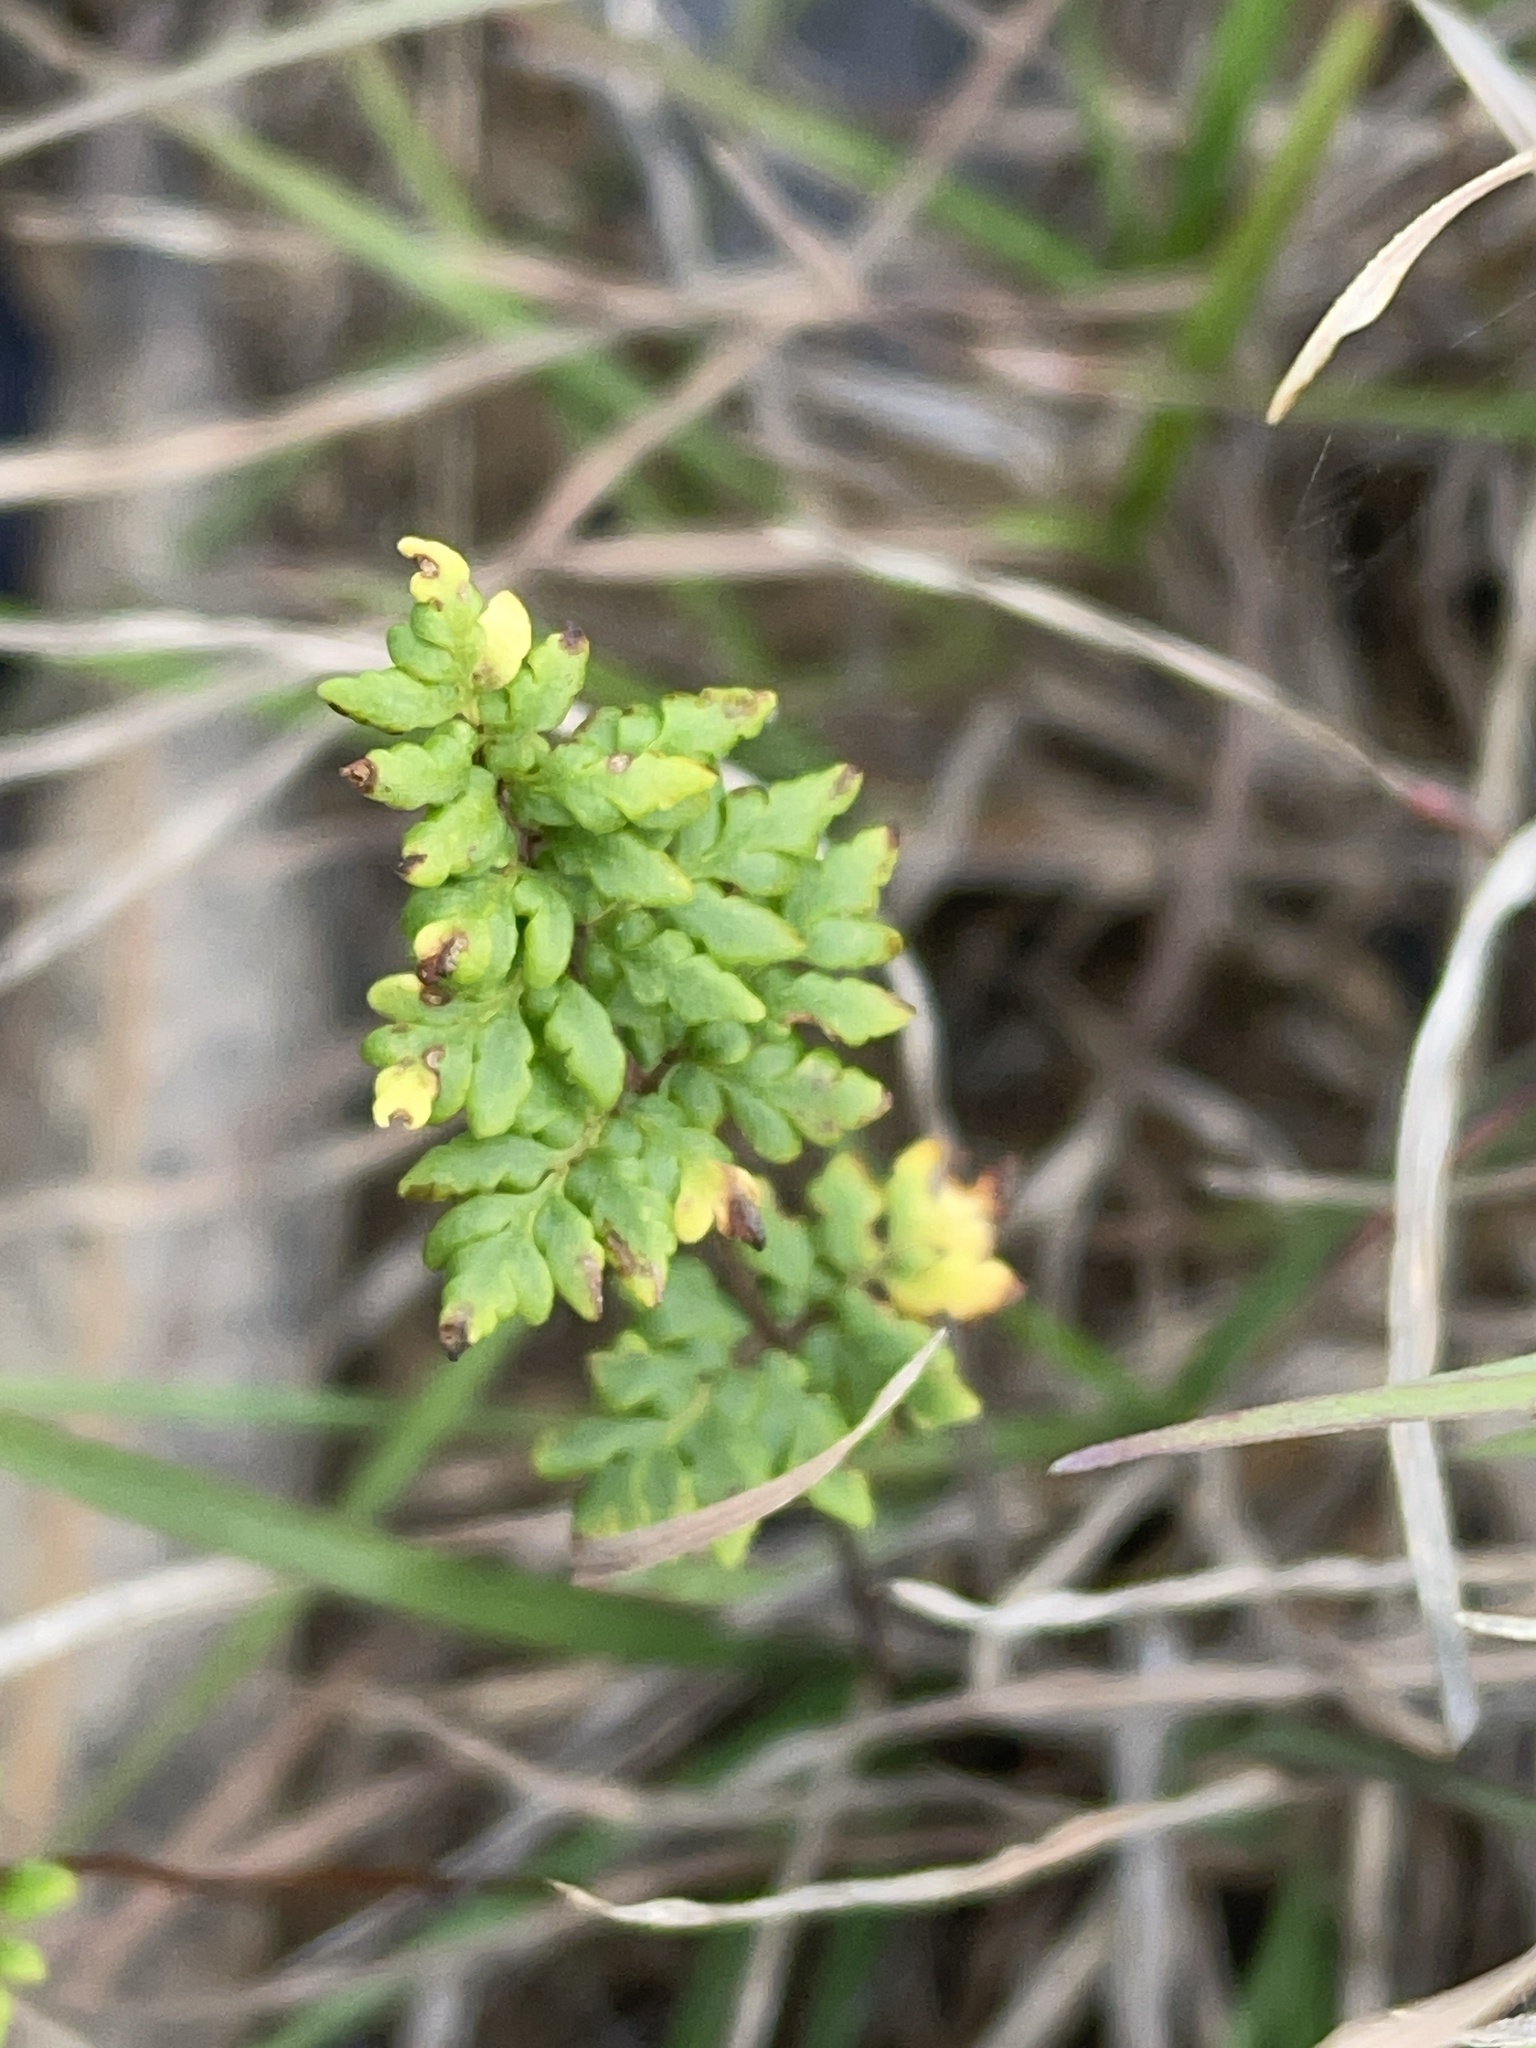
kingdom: Plantae
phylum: Tracheophyta
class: Polypodiopsida
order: Polypodiales
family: Pteridaceae
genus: Cheilanthes
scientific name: Cheilanthes sieberi
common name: Mulga fern
